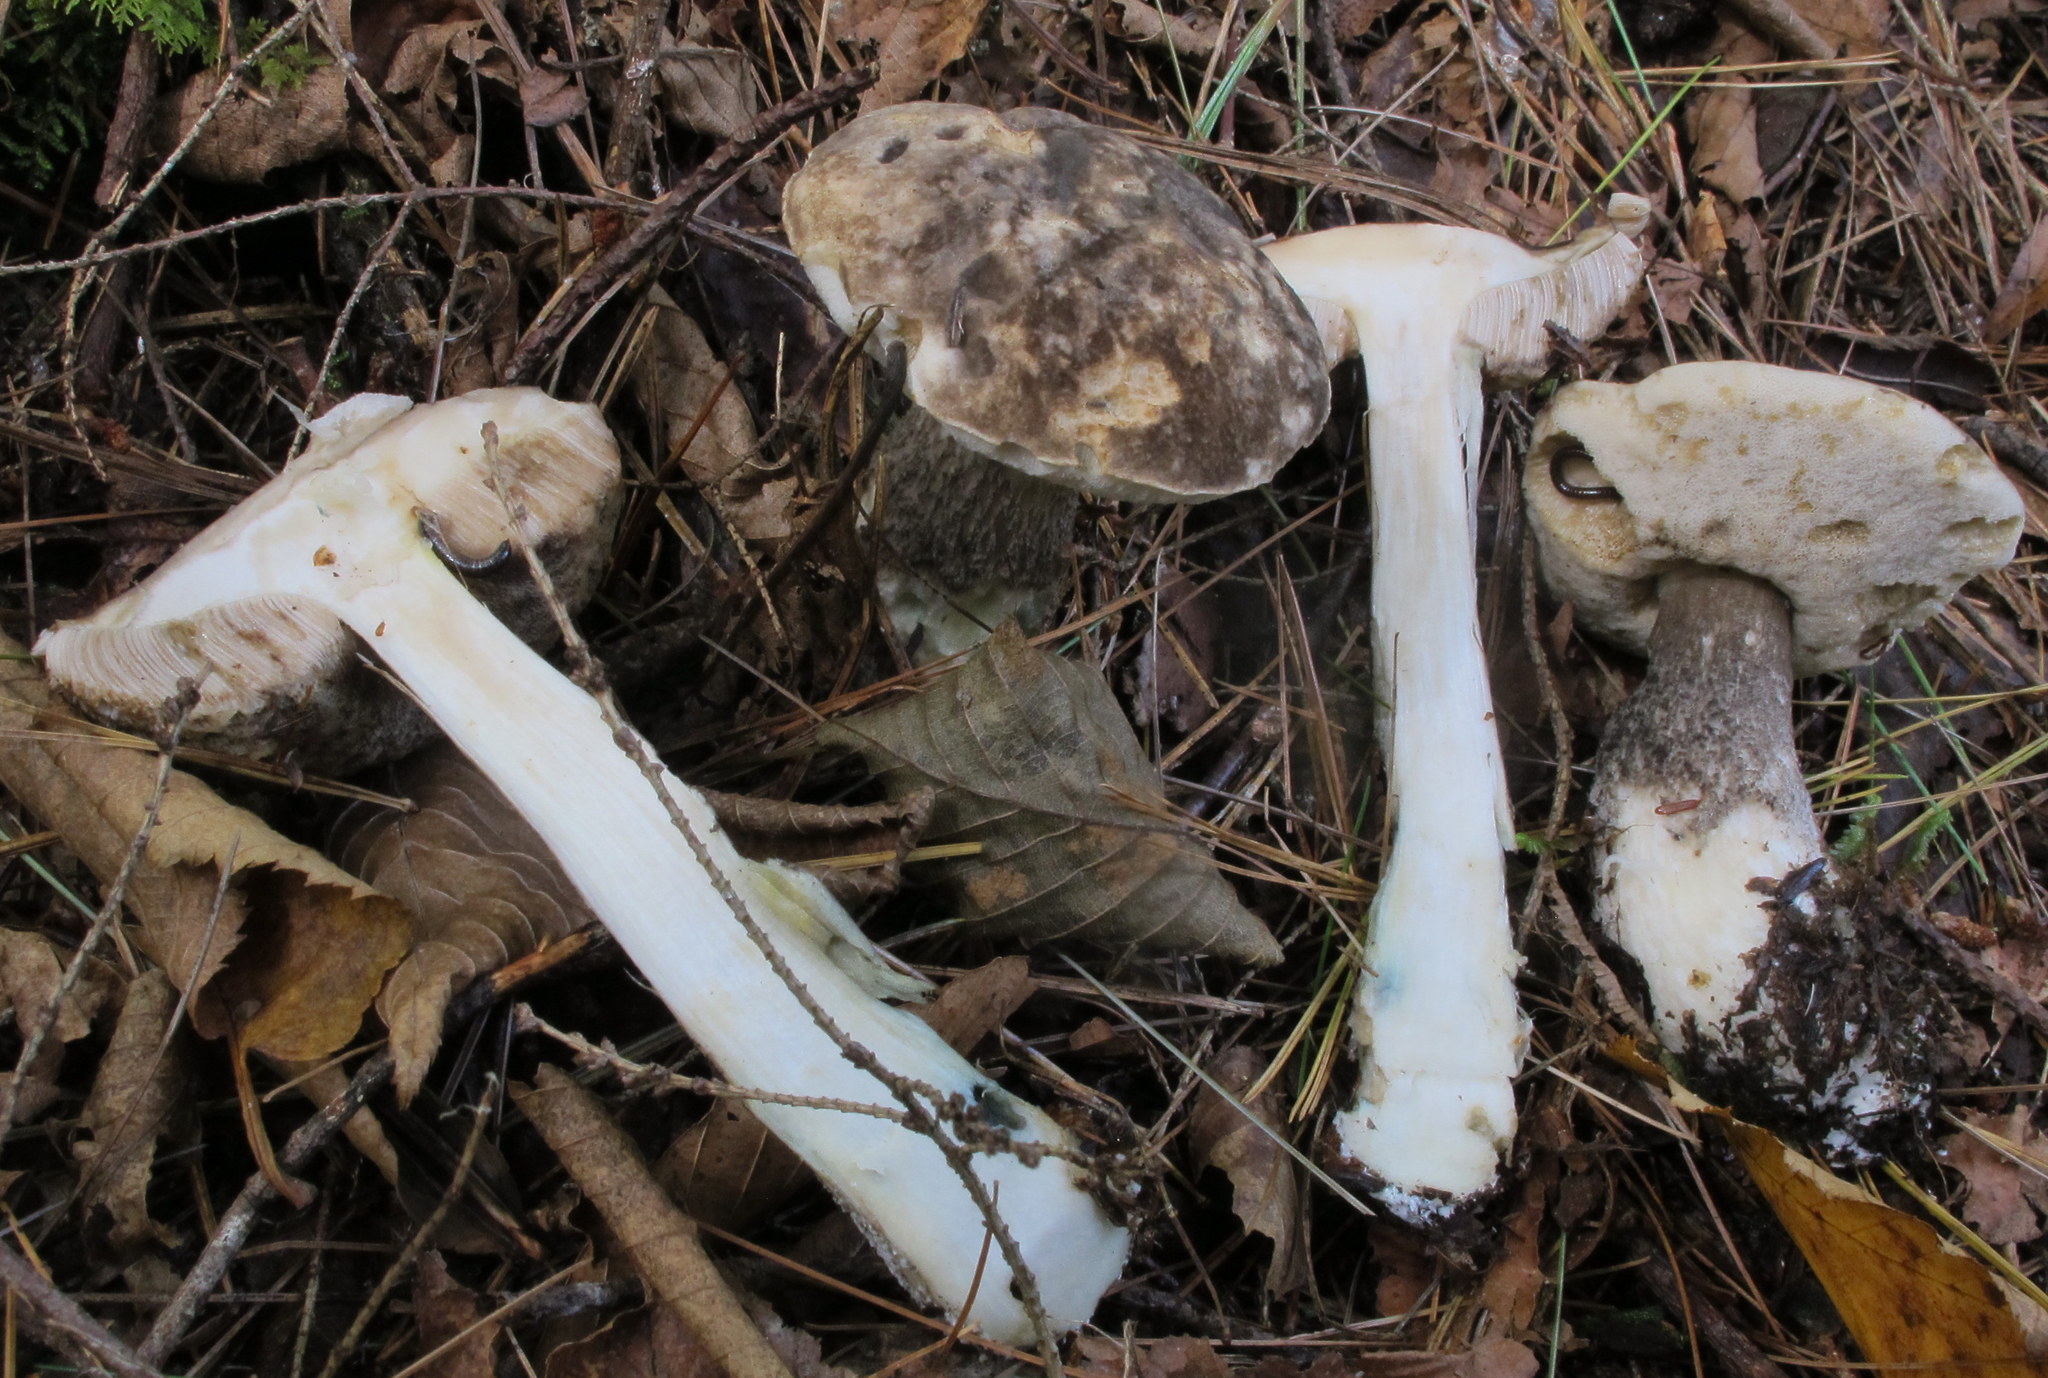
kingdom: Fungi
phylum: Basidiomycota
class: Agaricomycetes
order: Boletales
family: Boletaceae
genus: Leccinum
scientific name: Leccinum snellii
